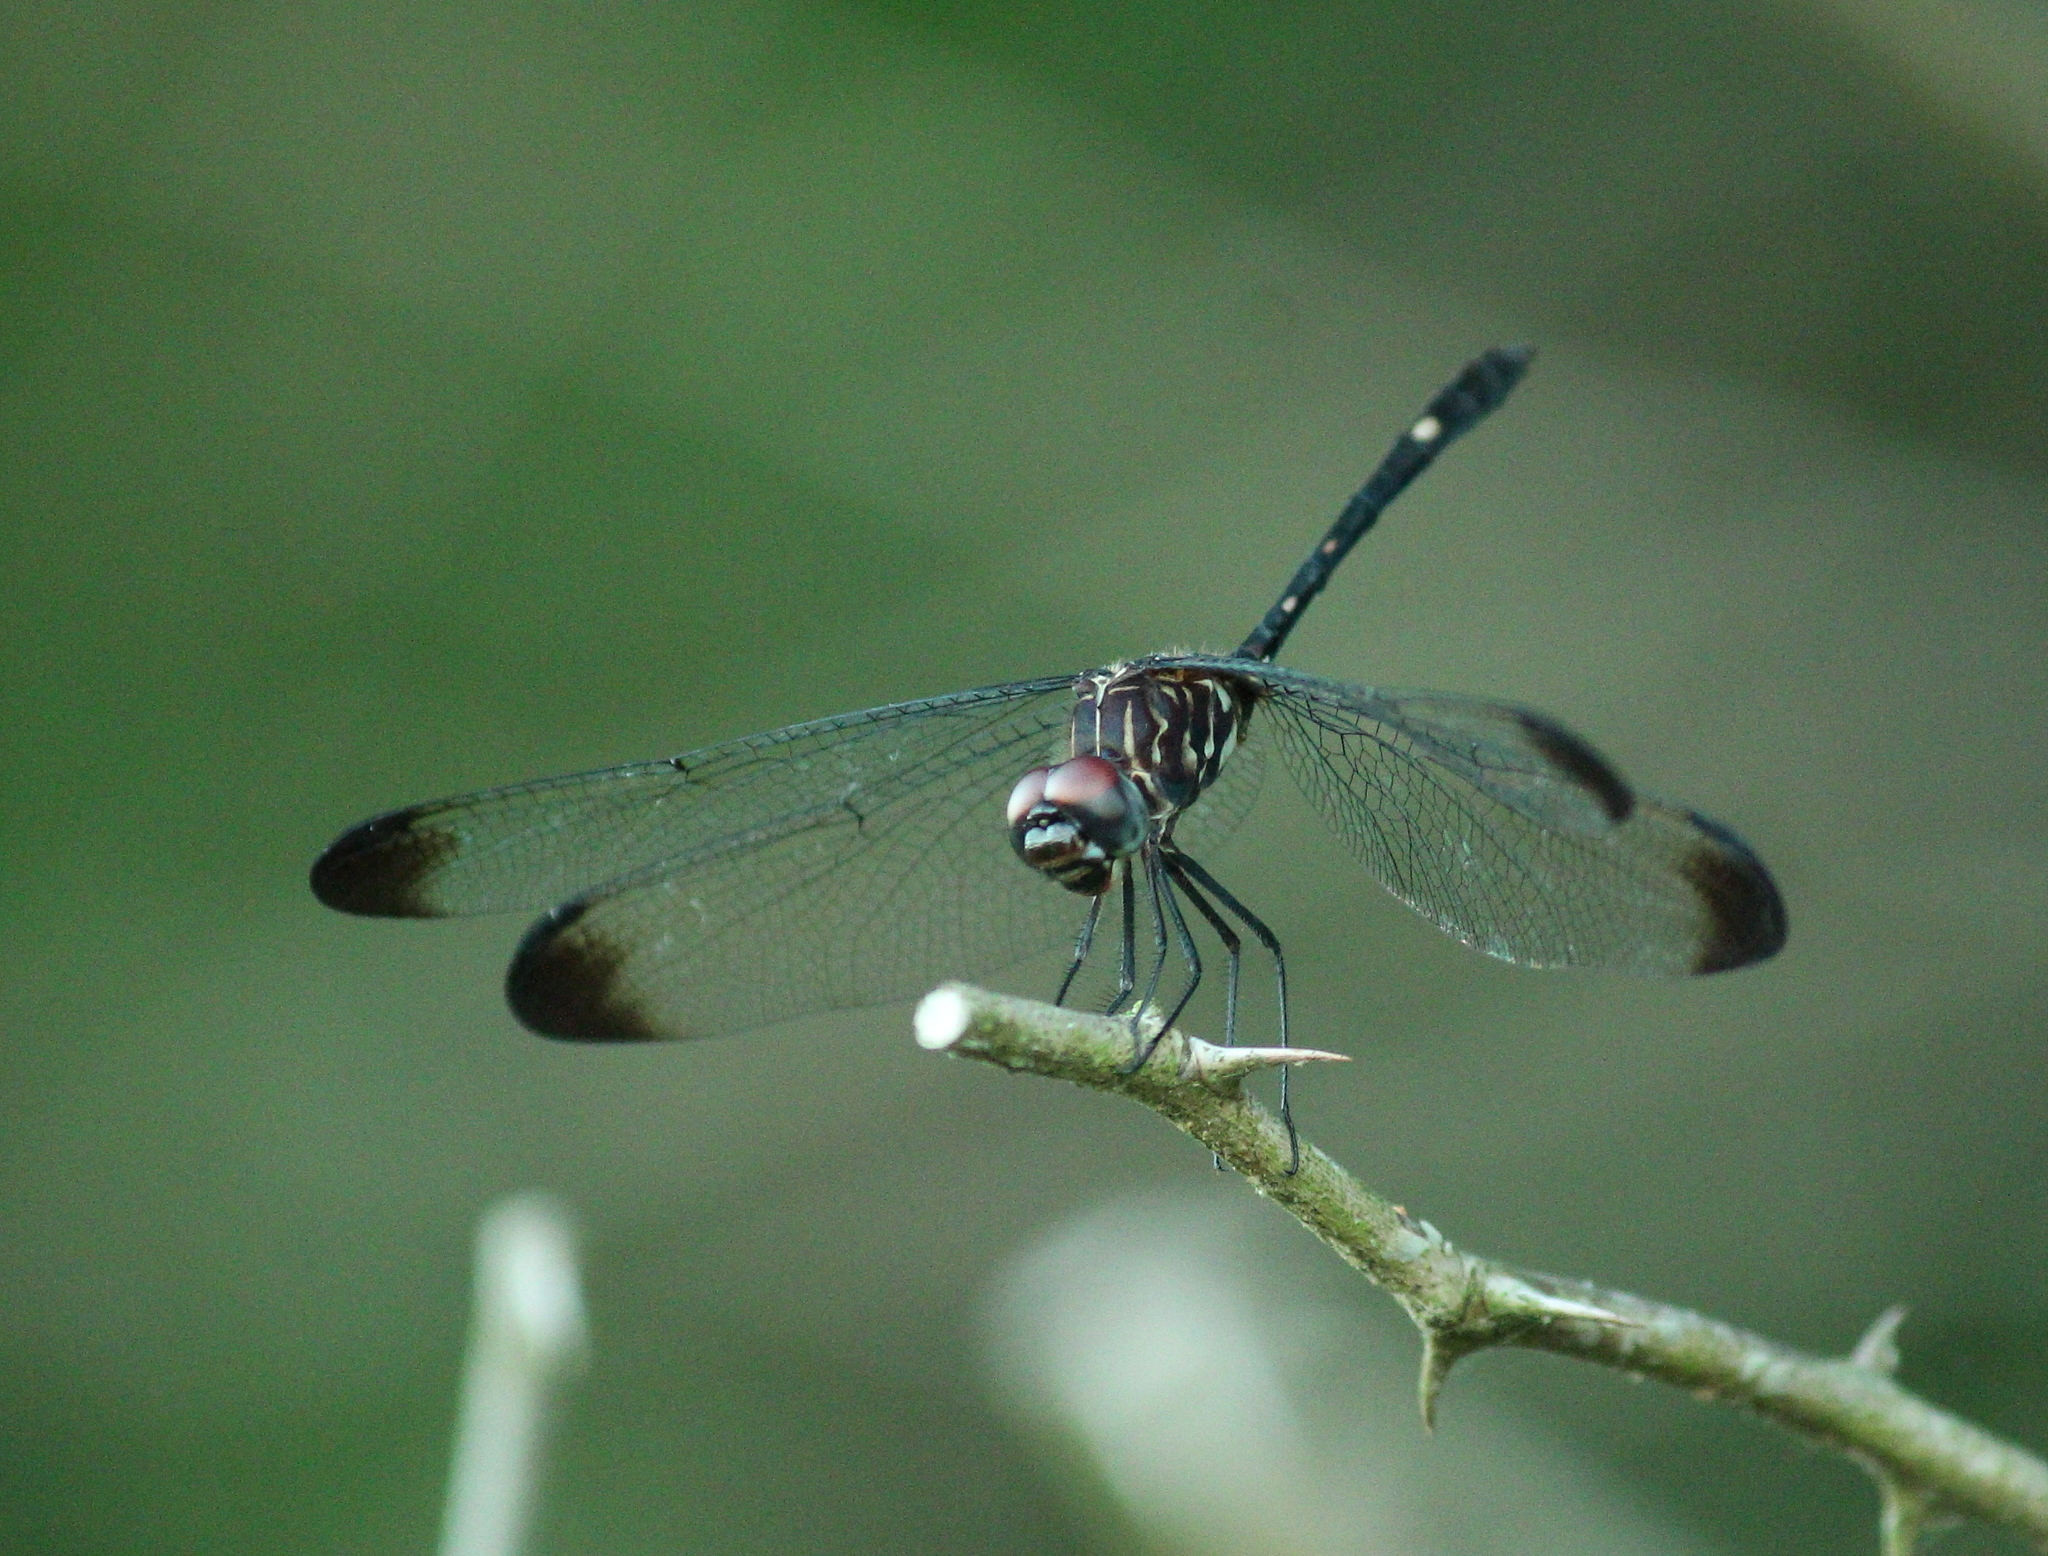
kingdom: Animalia
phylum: Arthropoda
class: Insecta
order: Odonata
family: Libellulidae
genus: Dythemis
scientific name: Dythemis velox
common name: Swift setwing
